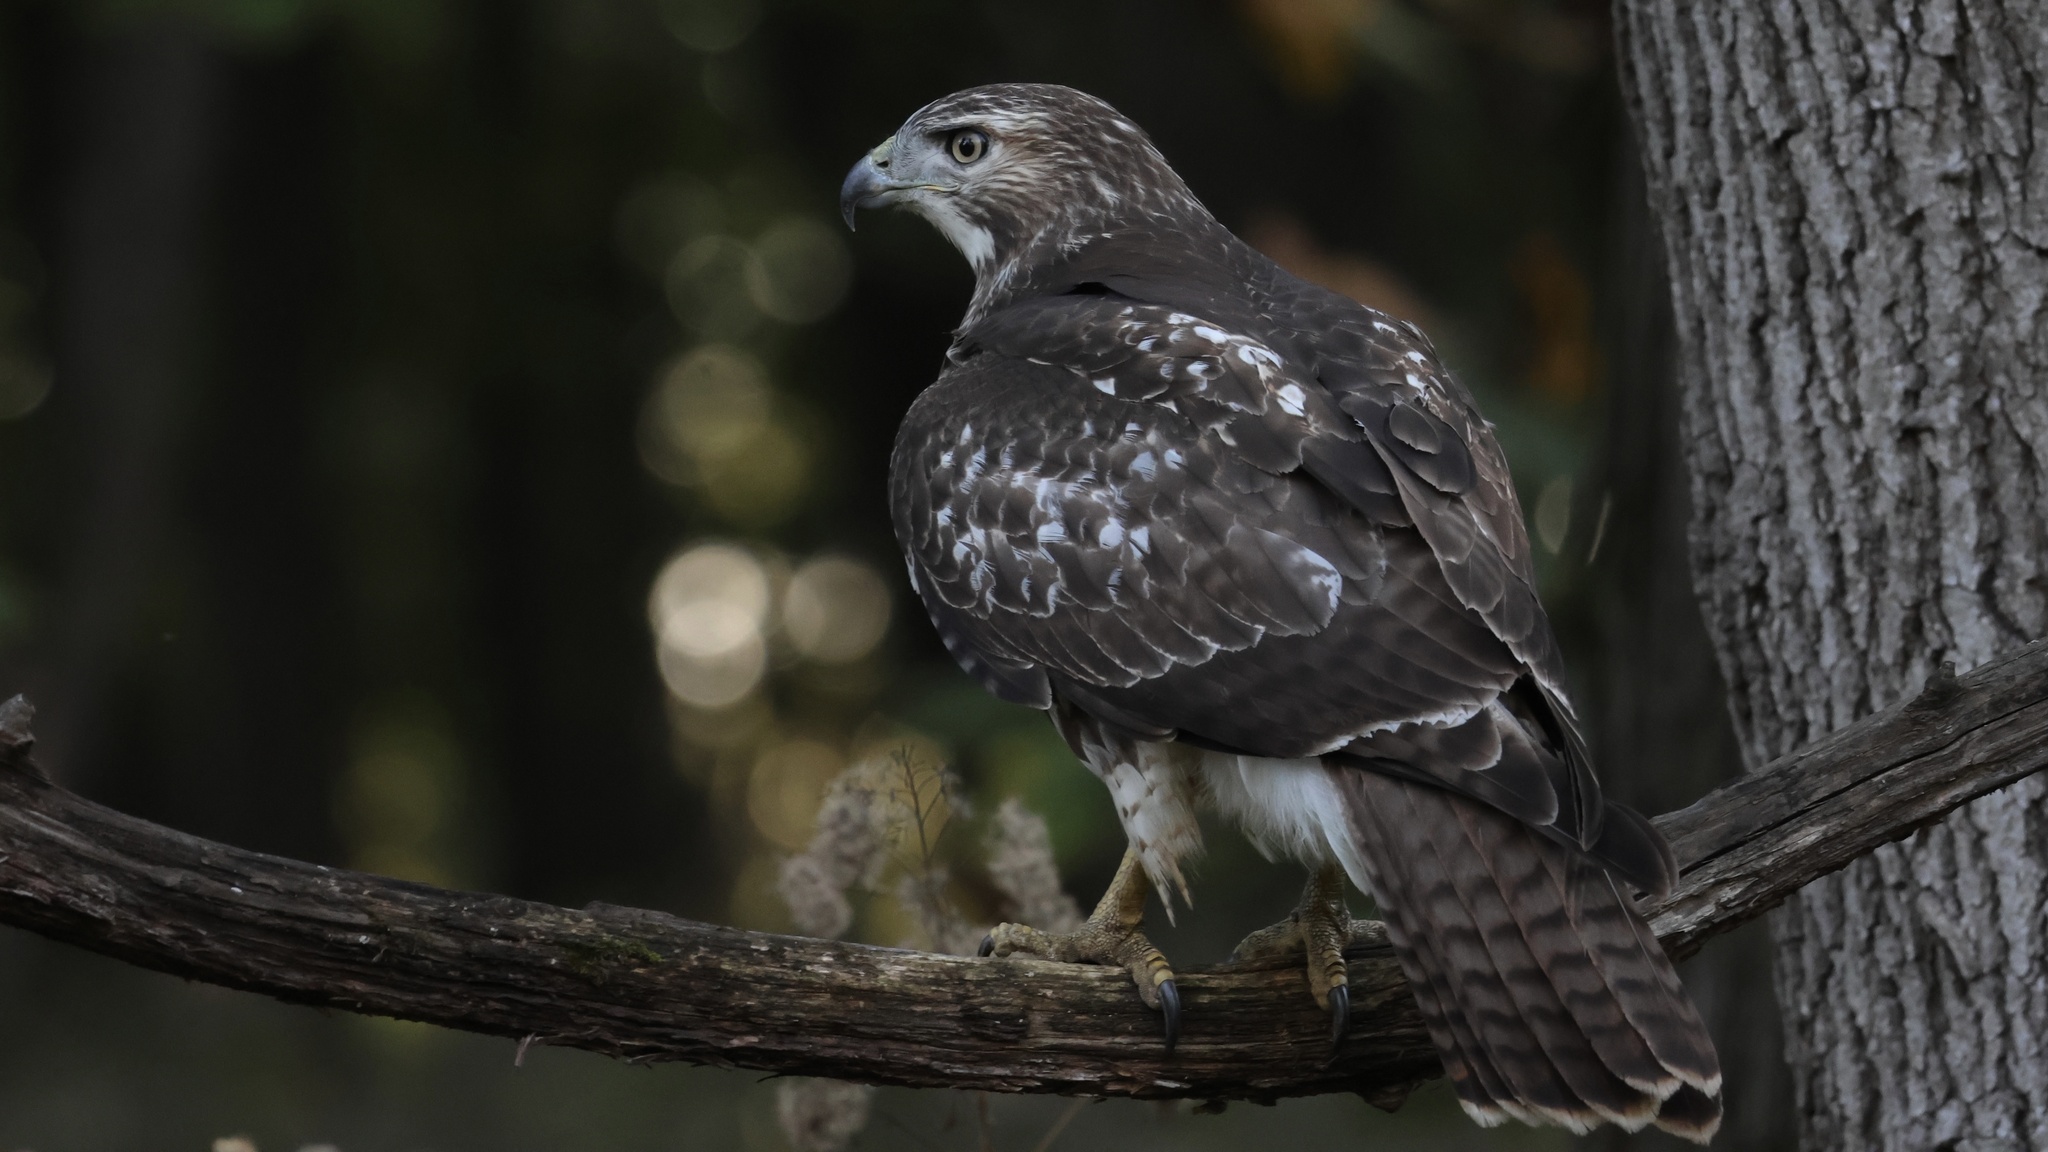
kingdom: Animalia
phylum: Chordata
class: Aves
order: Accipitriformes
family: Accipitridae
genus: Buteo
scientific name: Buteo jamaicensis
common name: Red-tailed hawk
